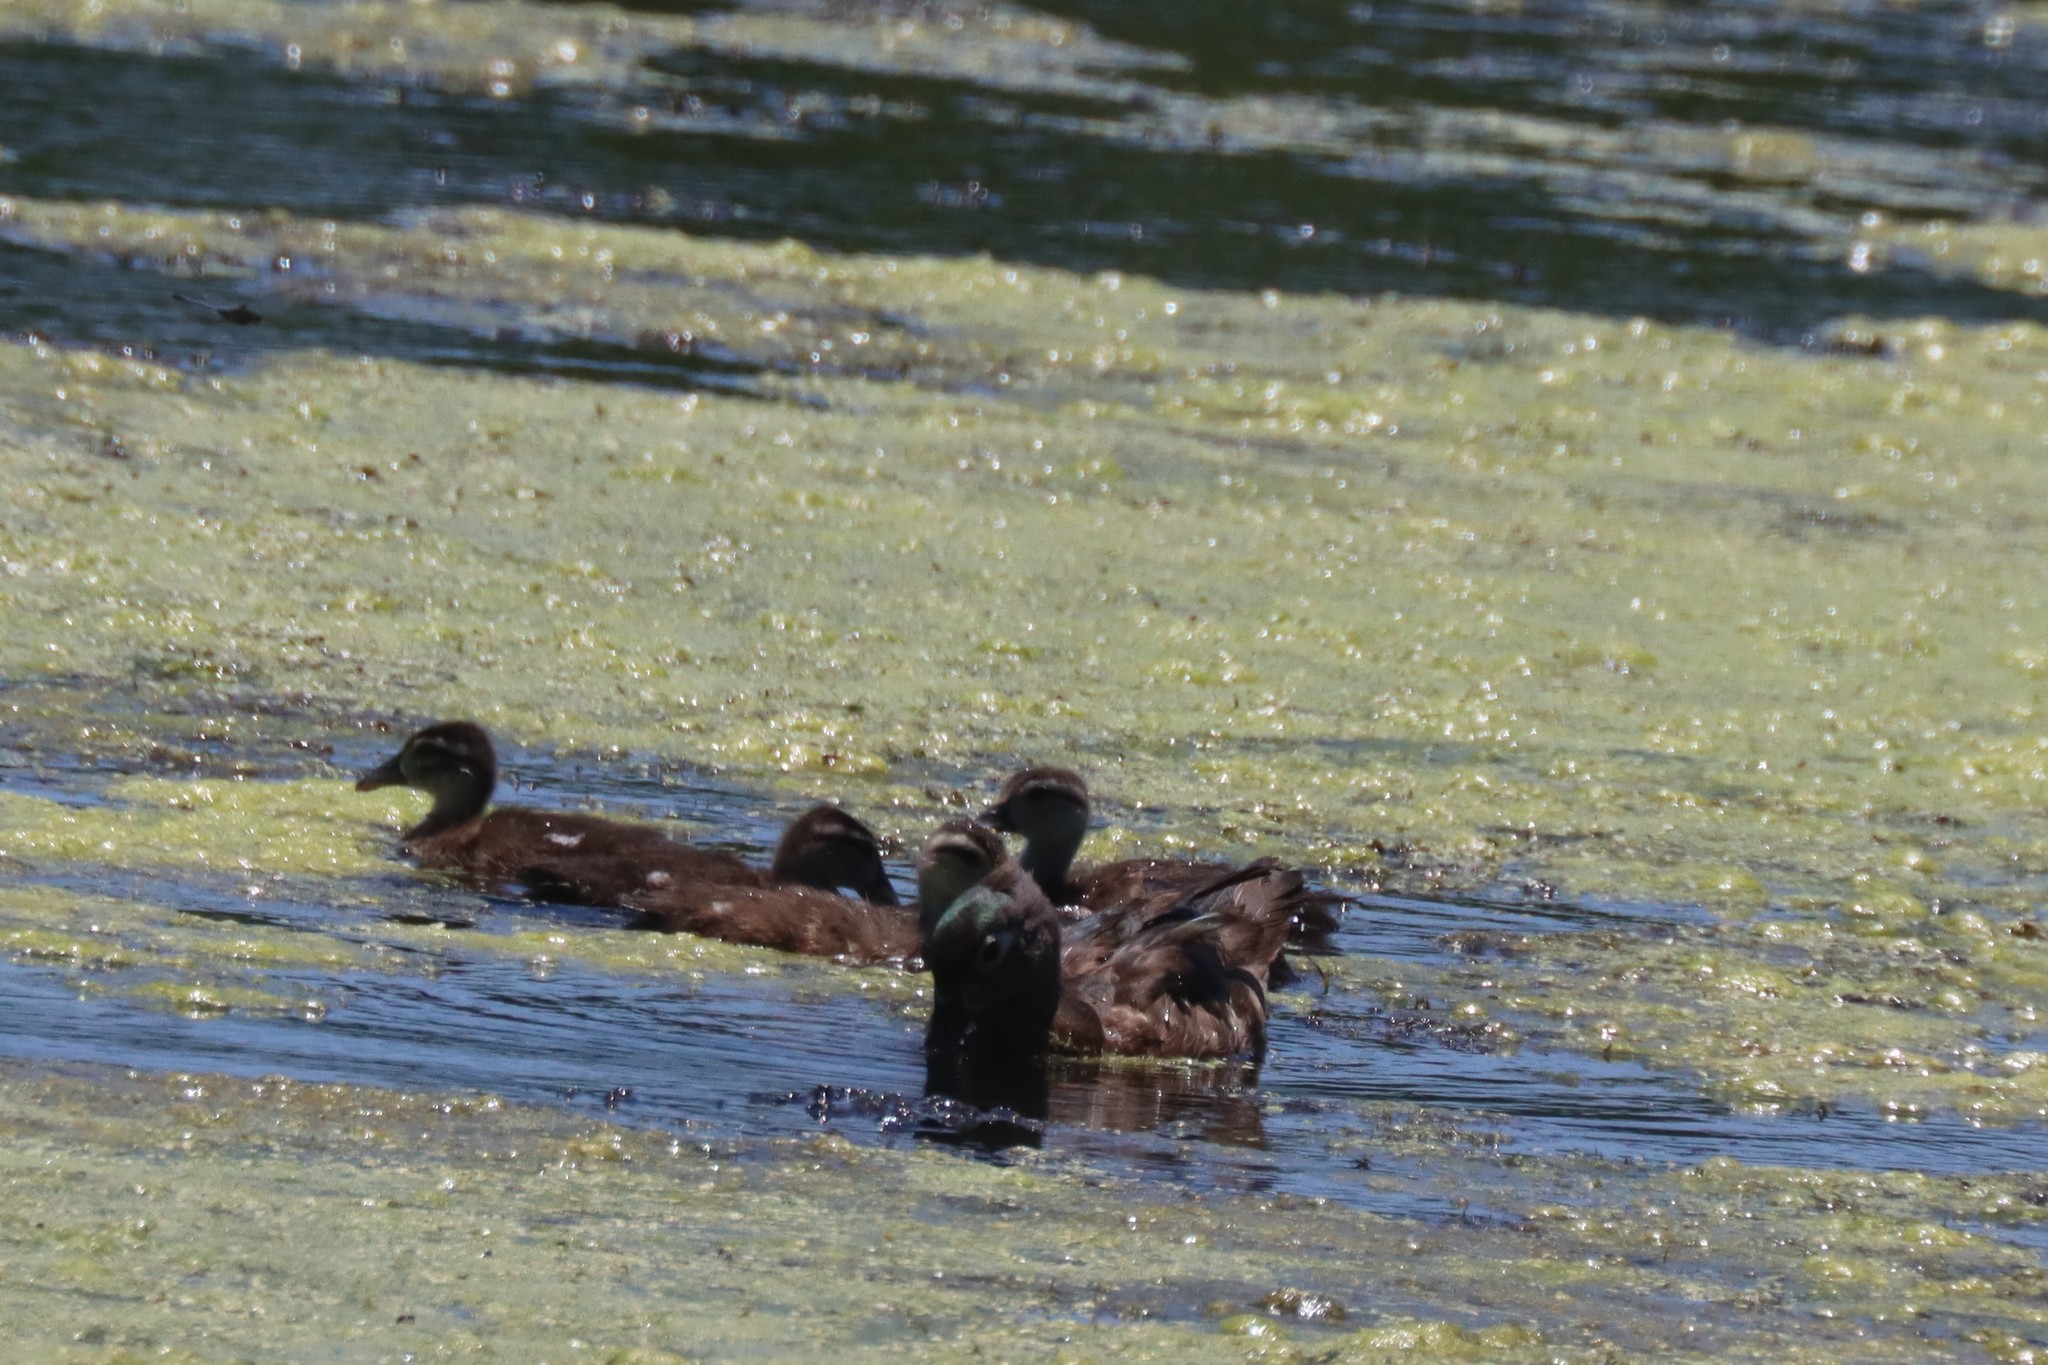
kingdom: Animalia
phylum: Chordata
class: Aves
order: Anseriformes
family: Anatidae
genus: Aix
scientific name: Aix sponsa
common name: Wood duck
